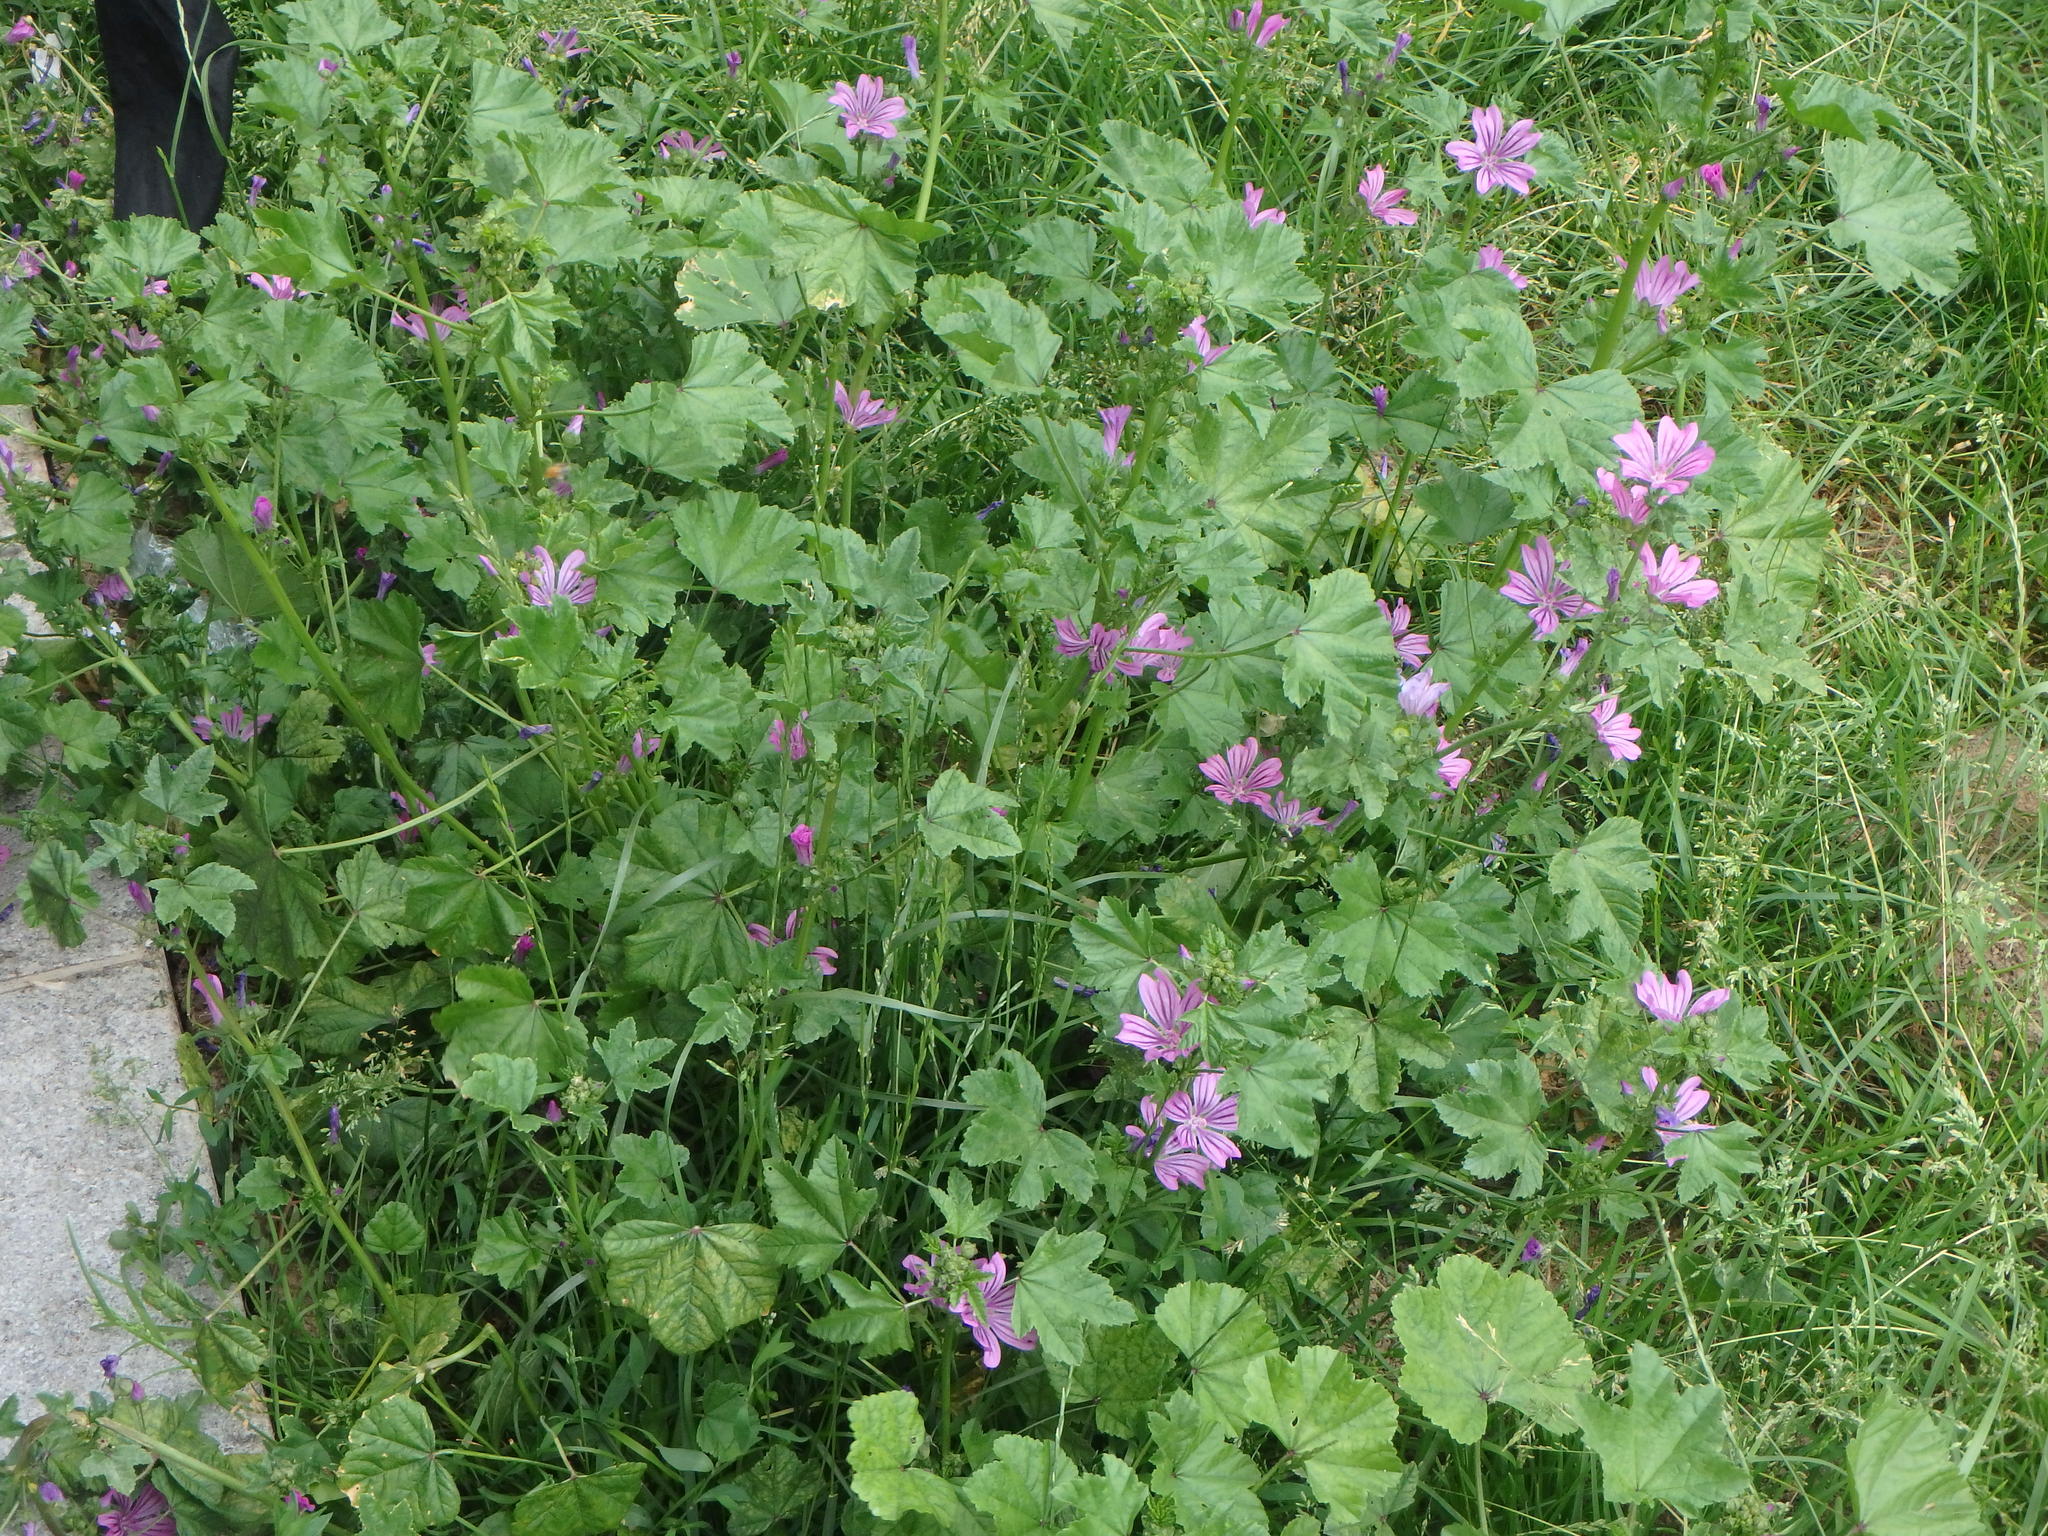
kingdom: Plantae
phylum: Tracheophyta
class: Magnoliopsida
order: Malvales
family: Malvaceae
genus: Malva
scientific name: Malva sylvestris
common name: Common mallow
